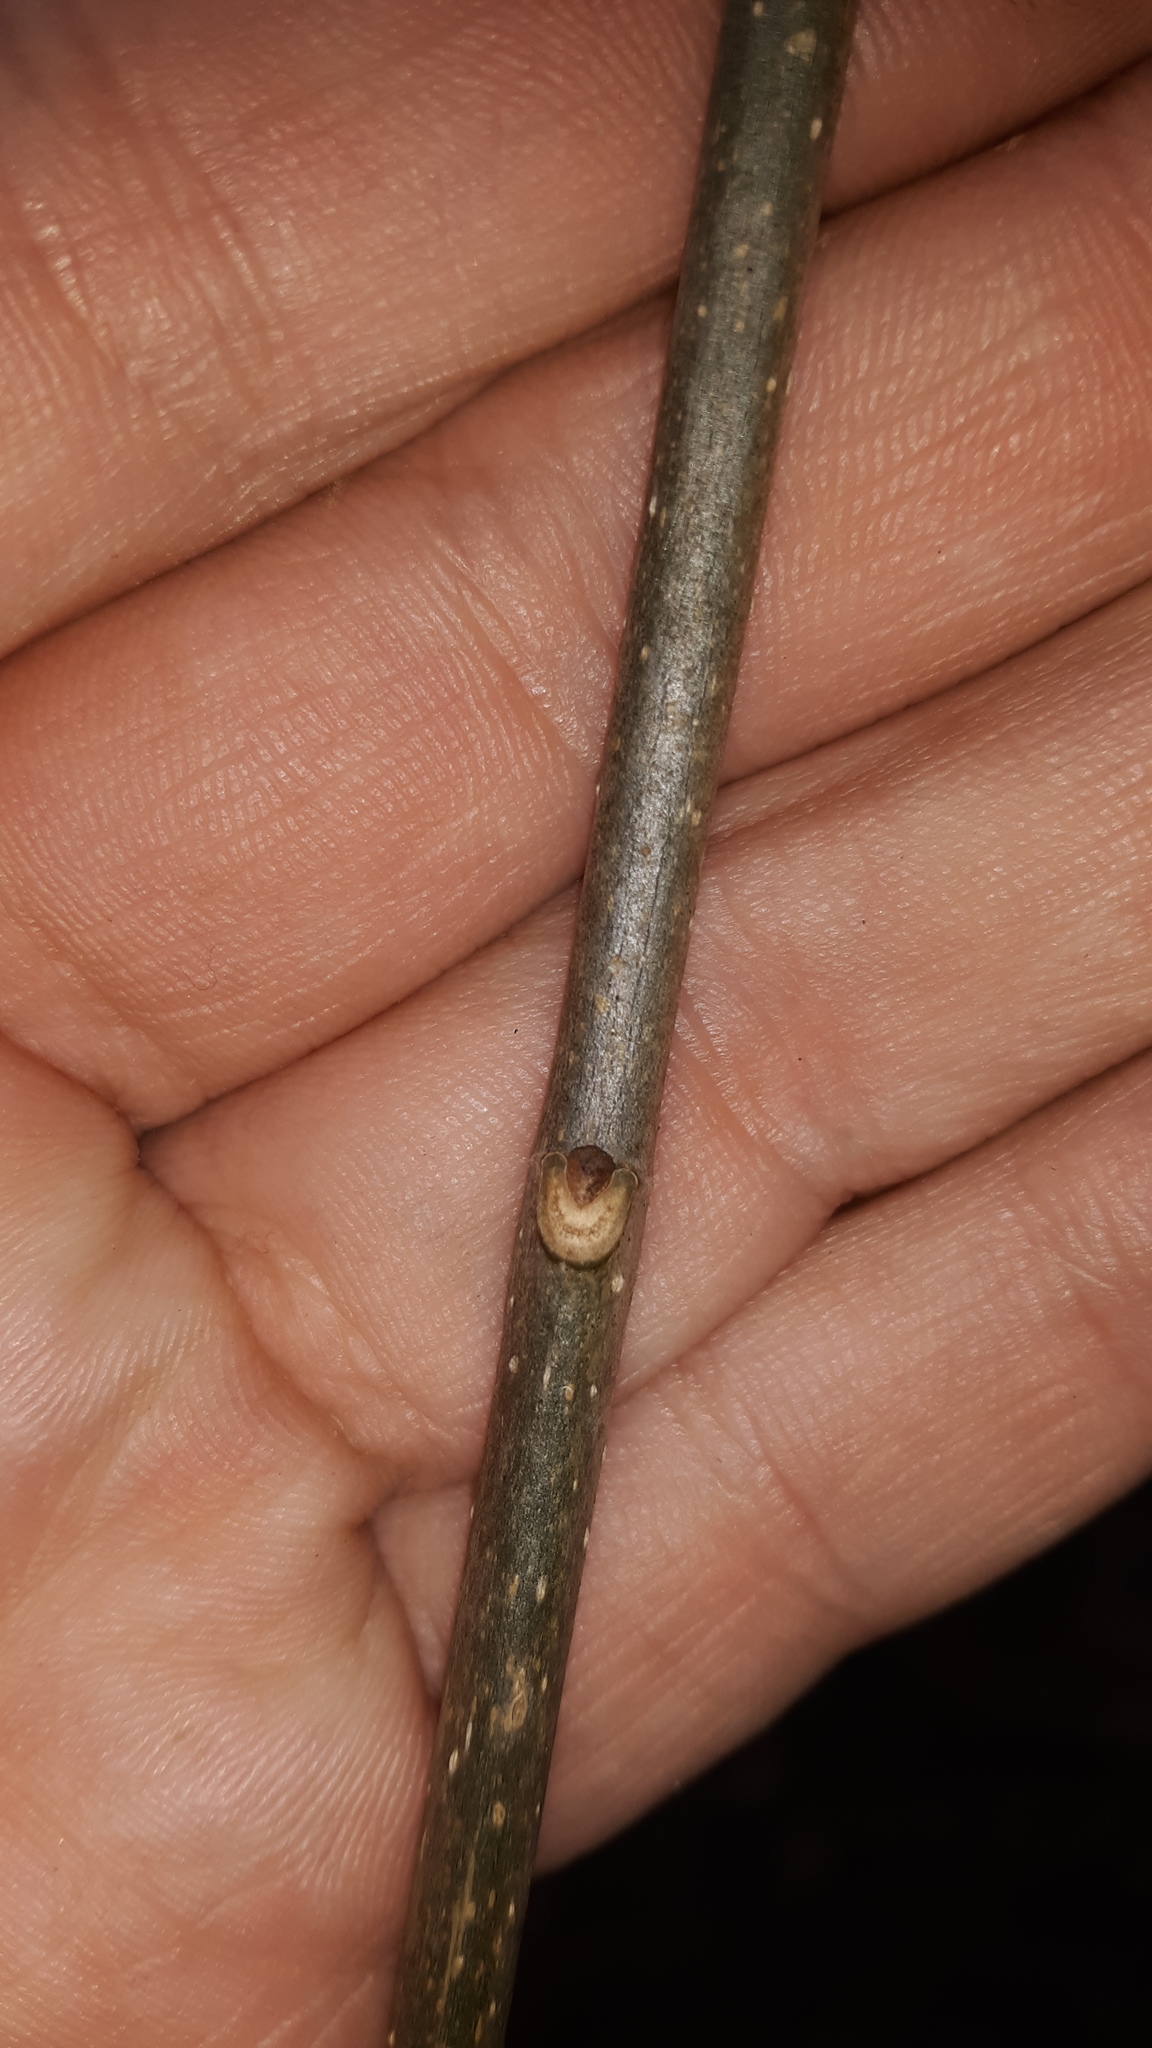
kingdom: Plantae
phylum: Tracheophyta
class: Magnoliopsida
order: Lamiales
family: Oleaceae
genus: Fraxinus
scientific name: Fraxinus americana
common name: White ash
